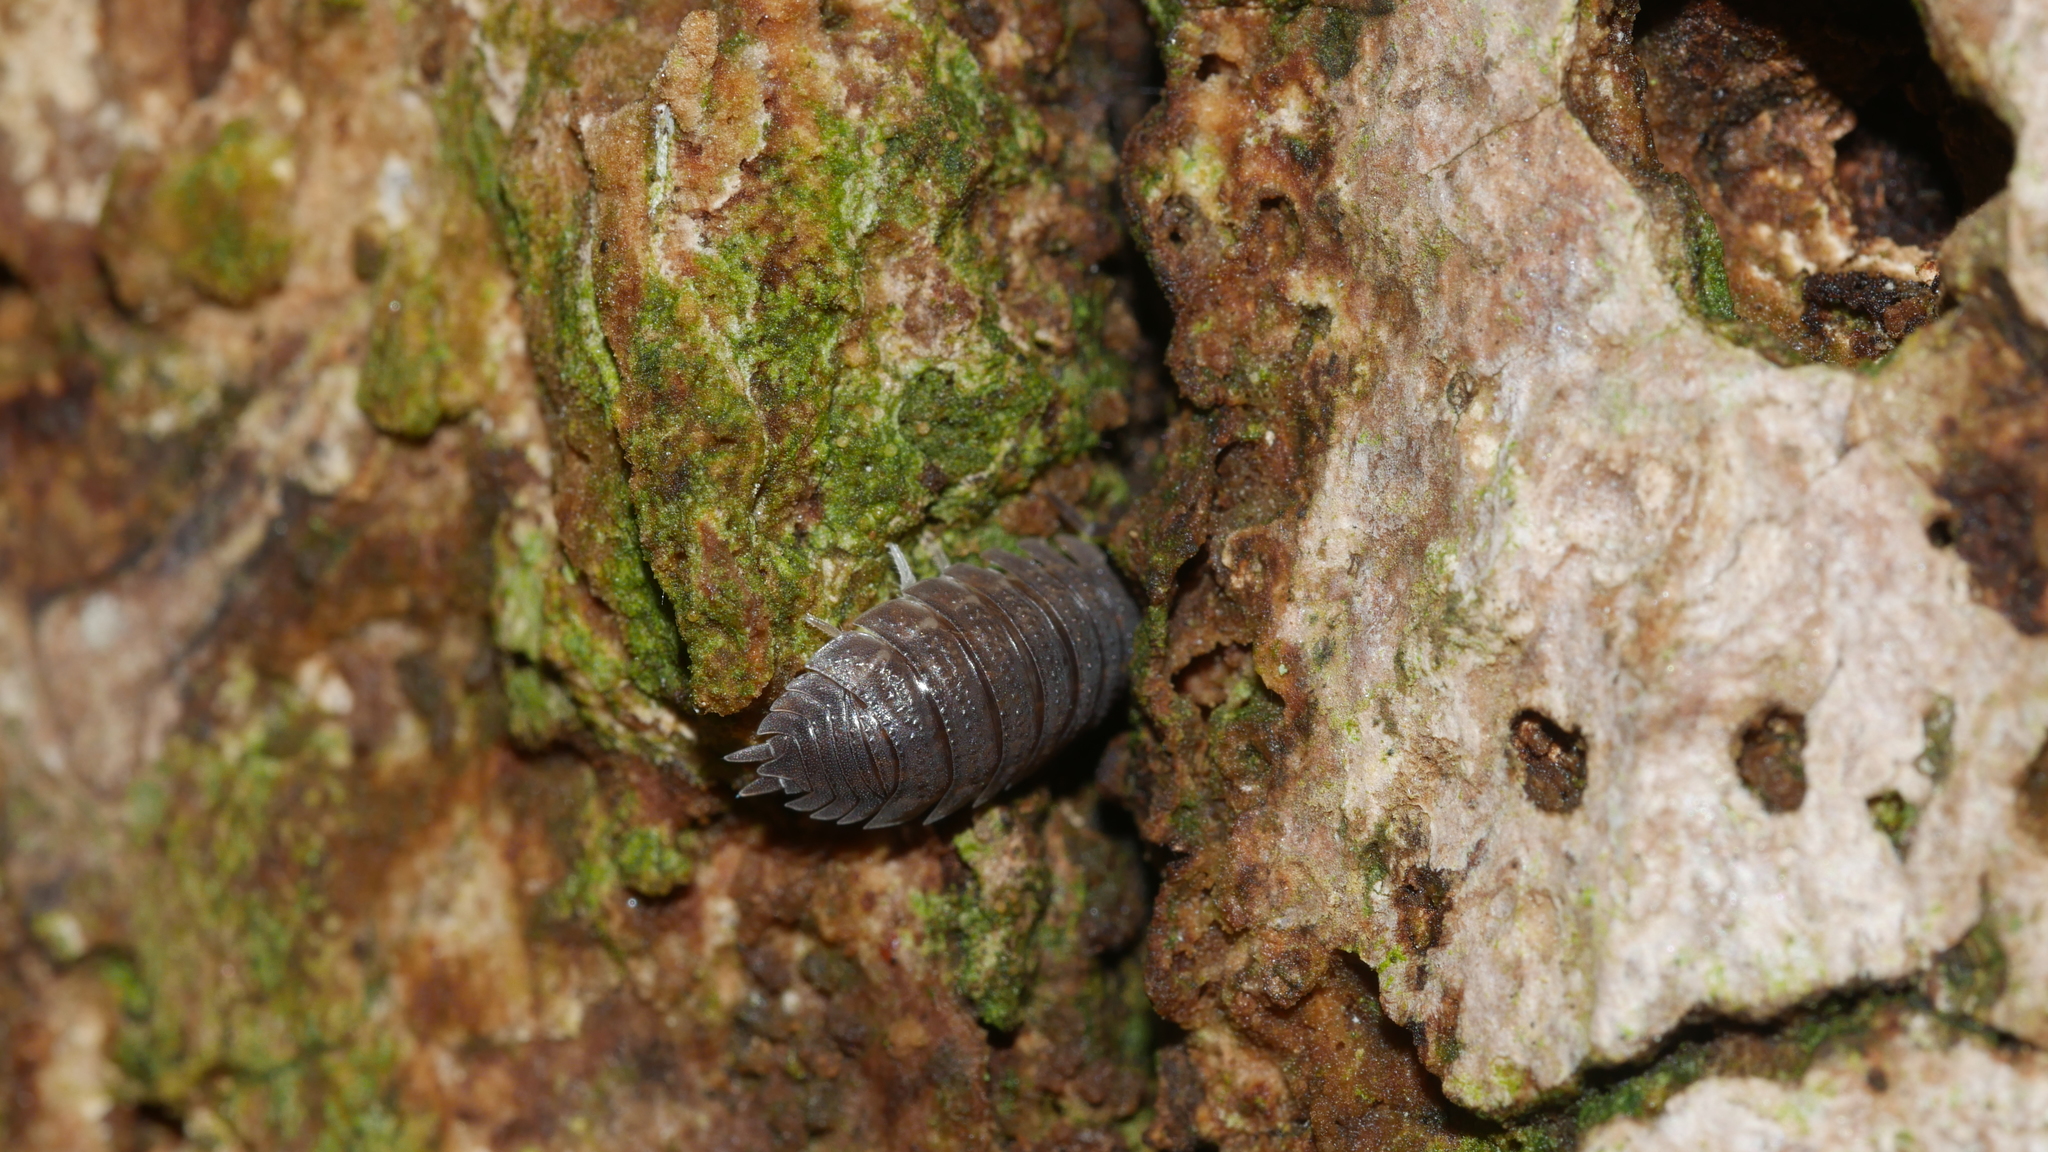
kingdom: Animalia
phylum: Arthropoda
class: Malacostraca
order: Isopoda
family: Porcellionidae
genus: Porcellio
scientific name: Porcellio scaber
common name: Common rough woodlouse
